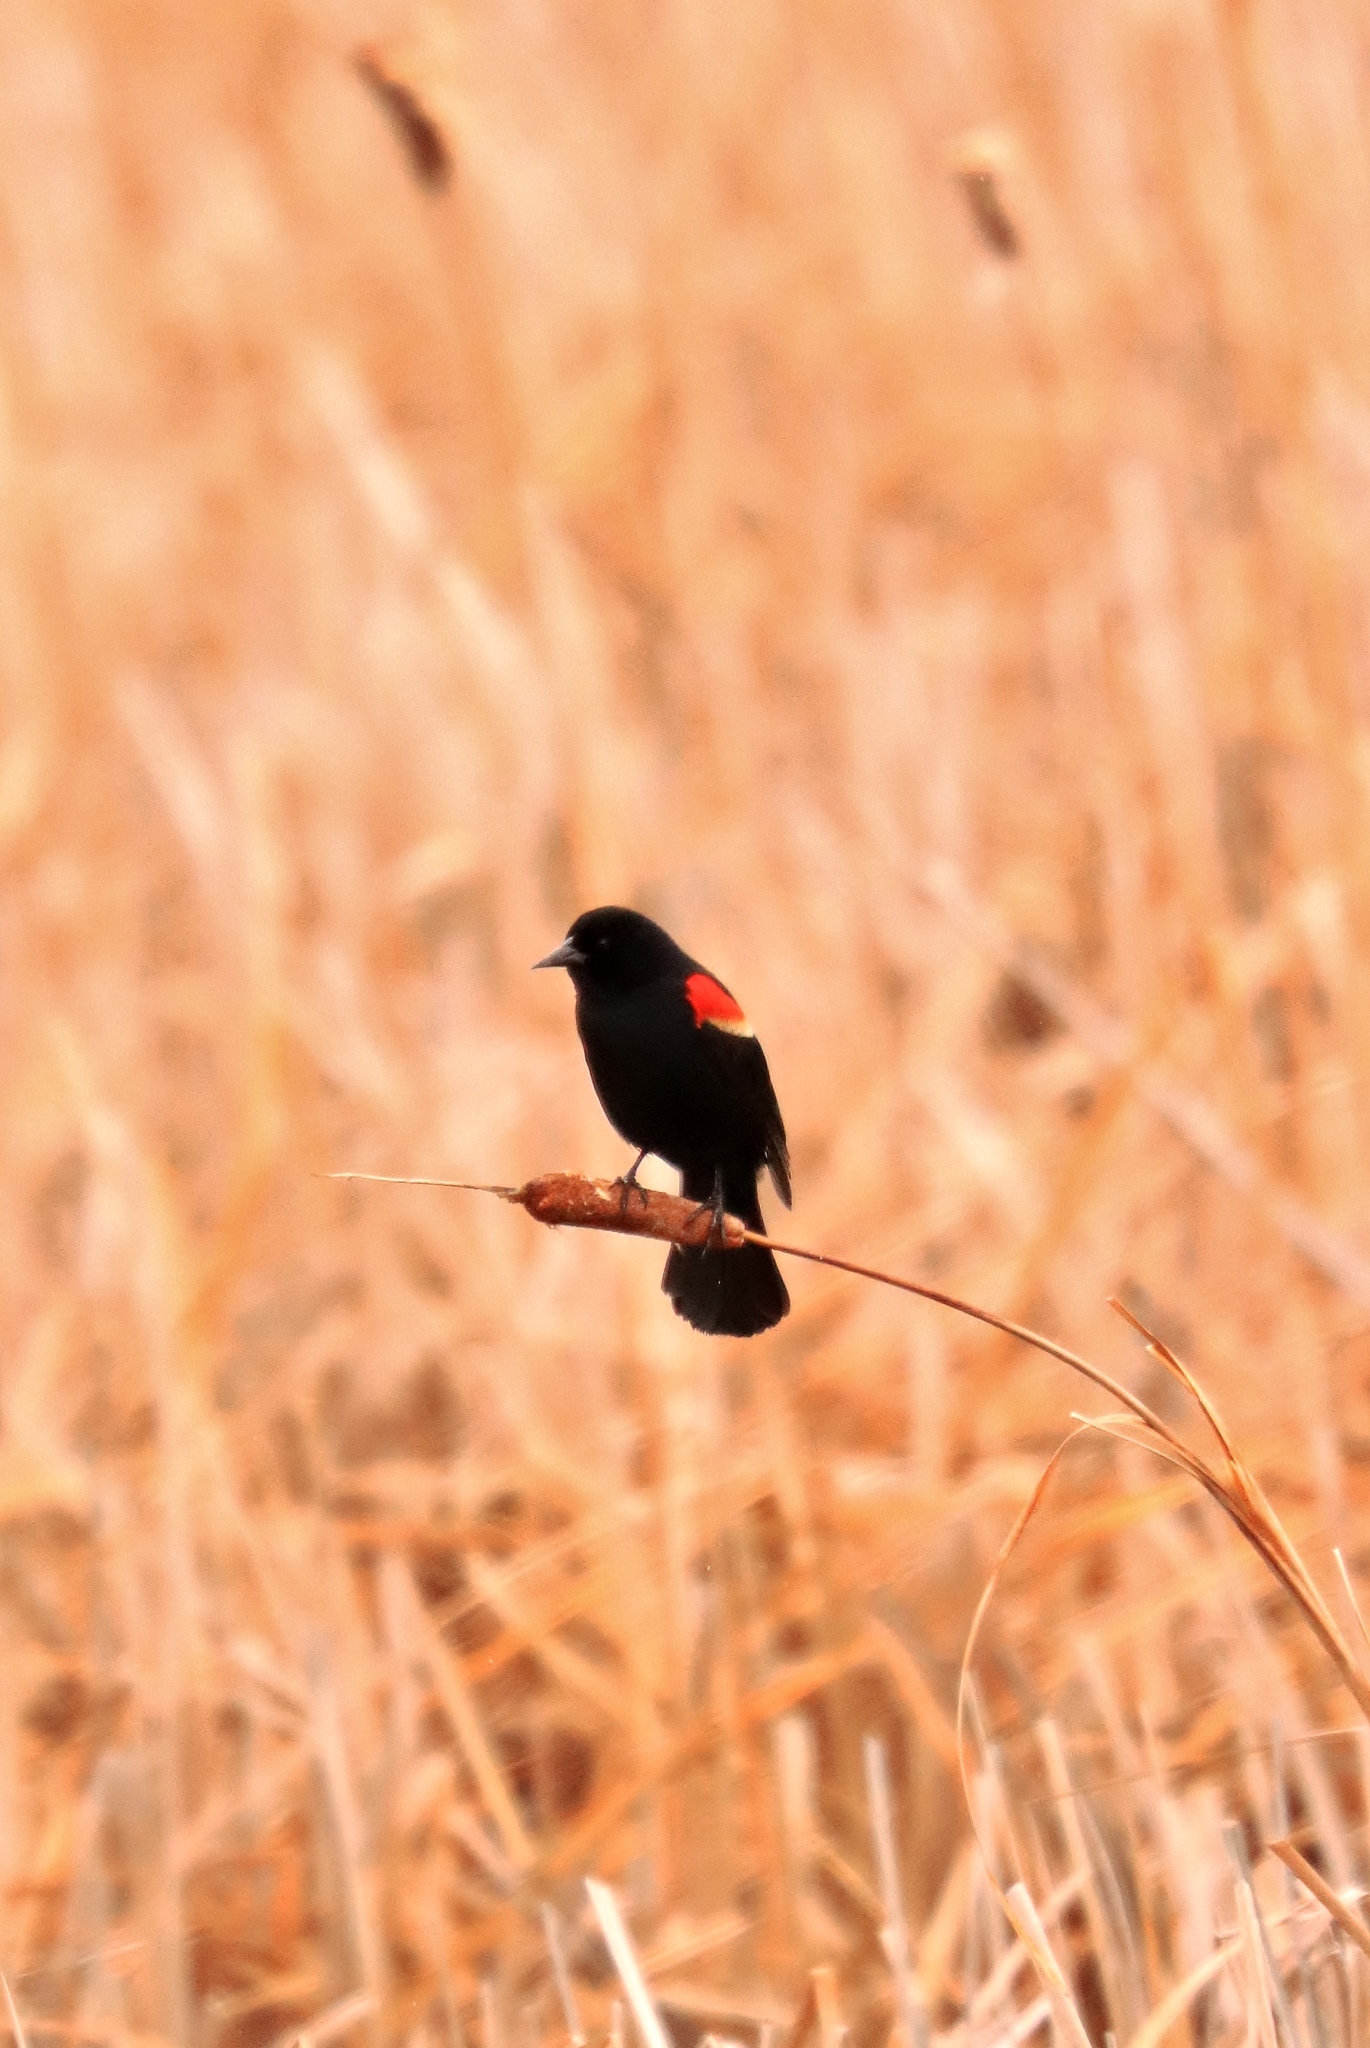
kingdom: Animalia
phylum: Chordata
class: Aves
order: Passeriformes
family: Icteridae
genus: Agelaius
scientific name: Agelaius phoeniceus
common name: Red-winged blackbird
